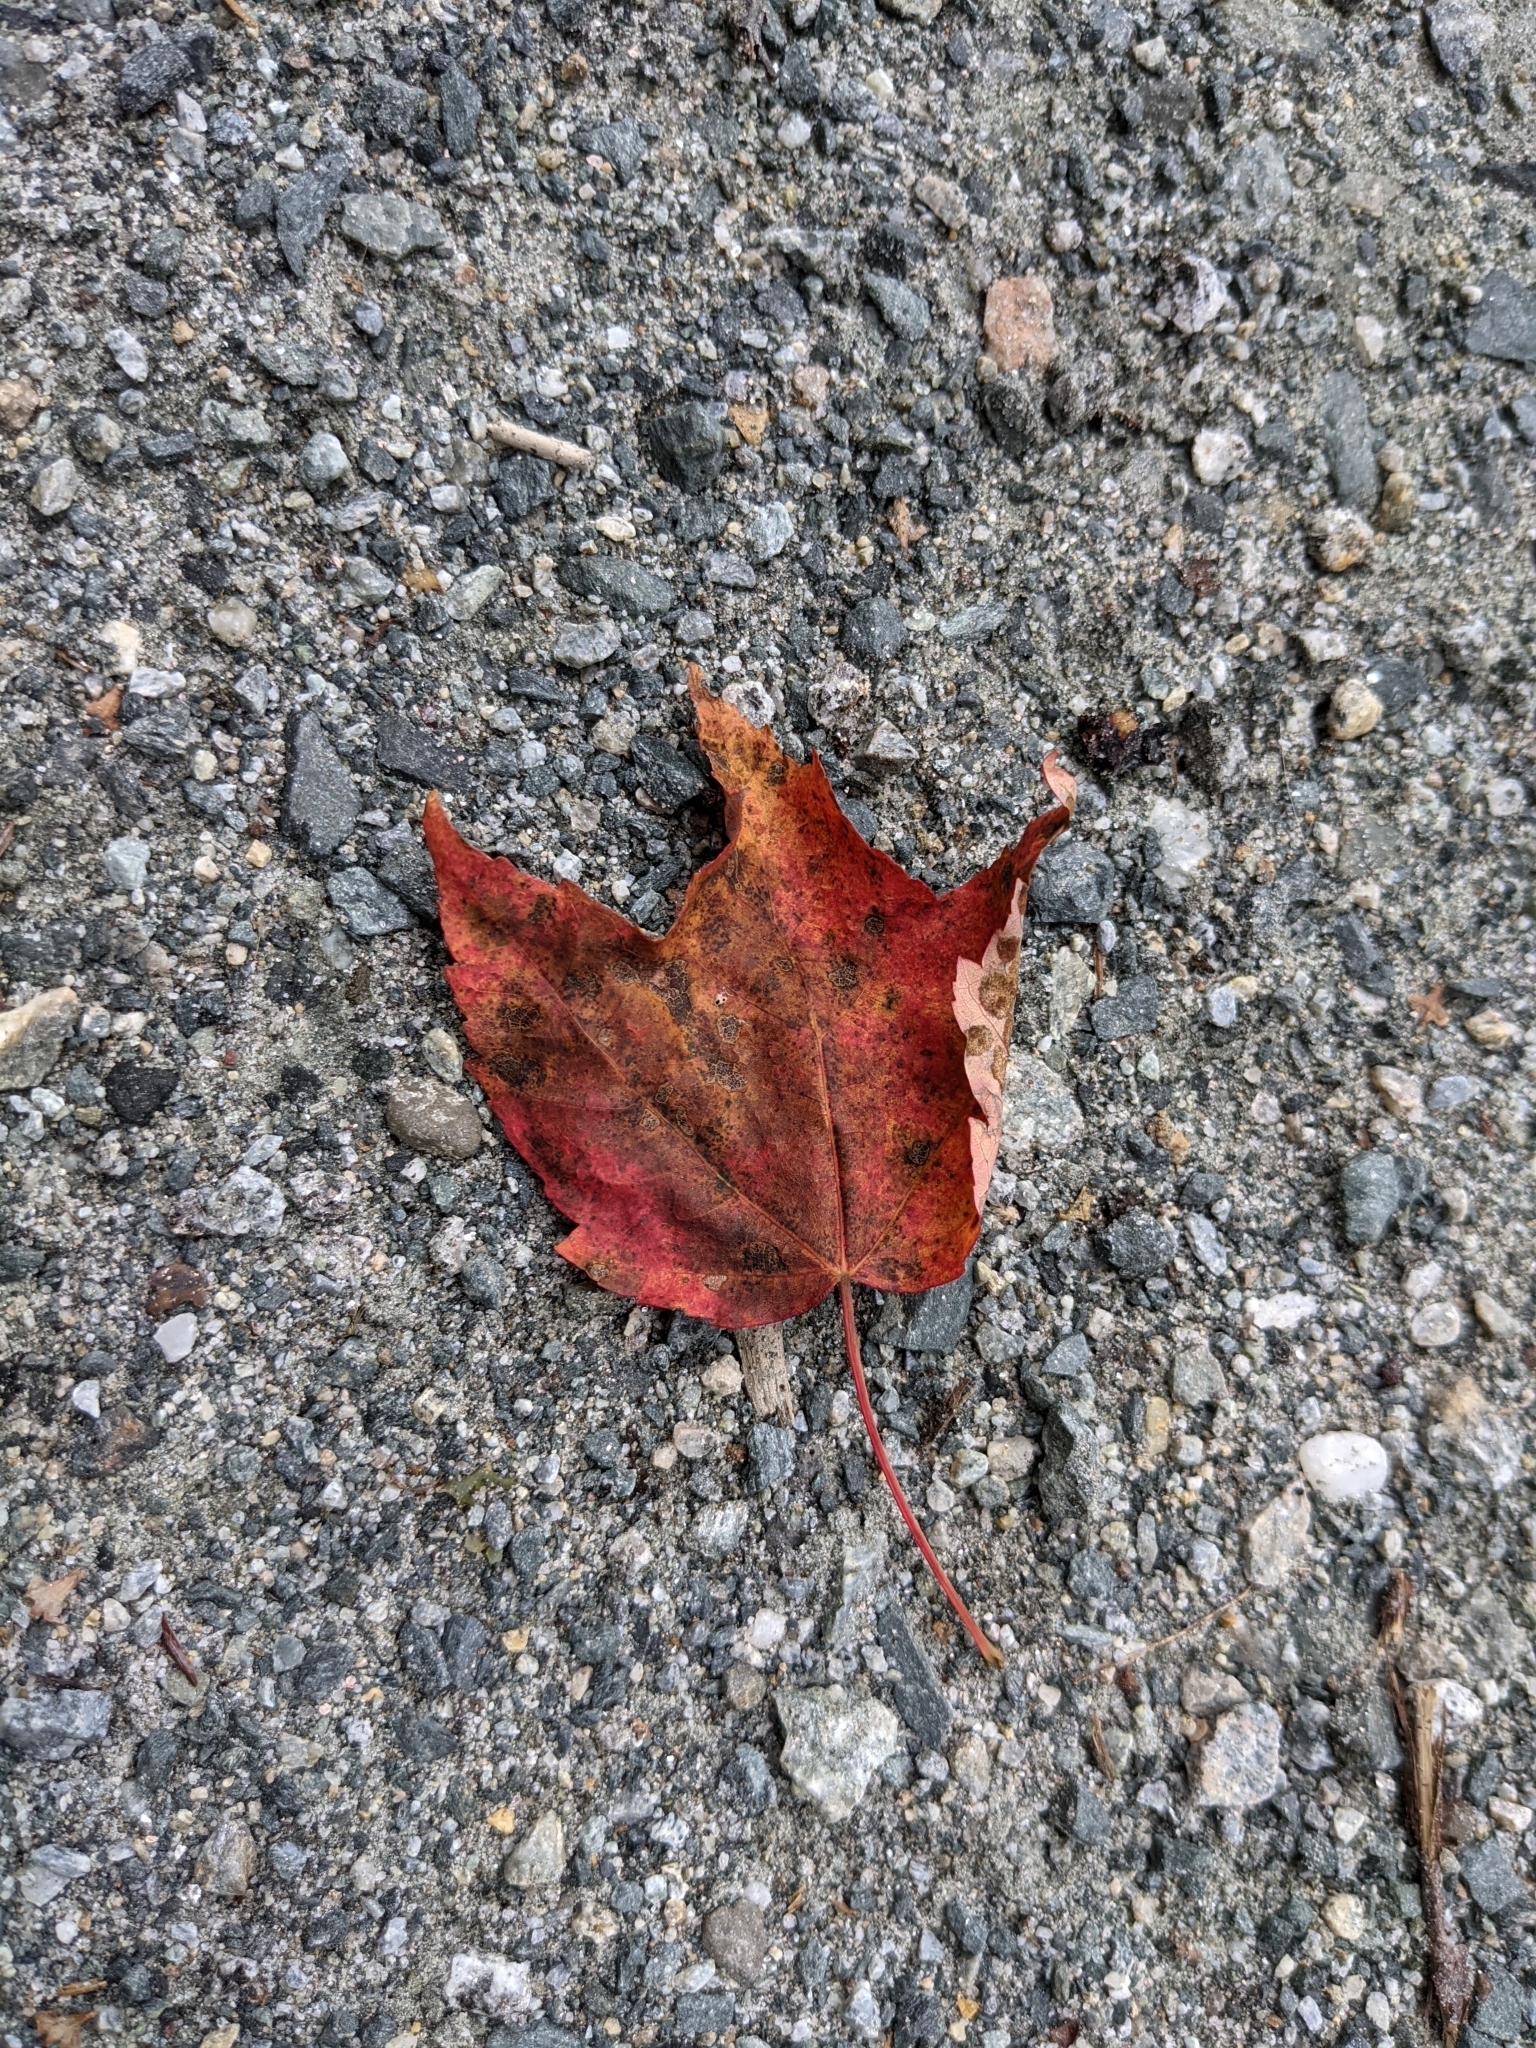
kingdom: Plantae
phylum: Tracheophyta
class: Magnoliopsida
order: Sapindales
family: Sapindaceae
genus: Acer
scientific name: Acer rubrum
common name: Red maple
